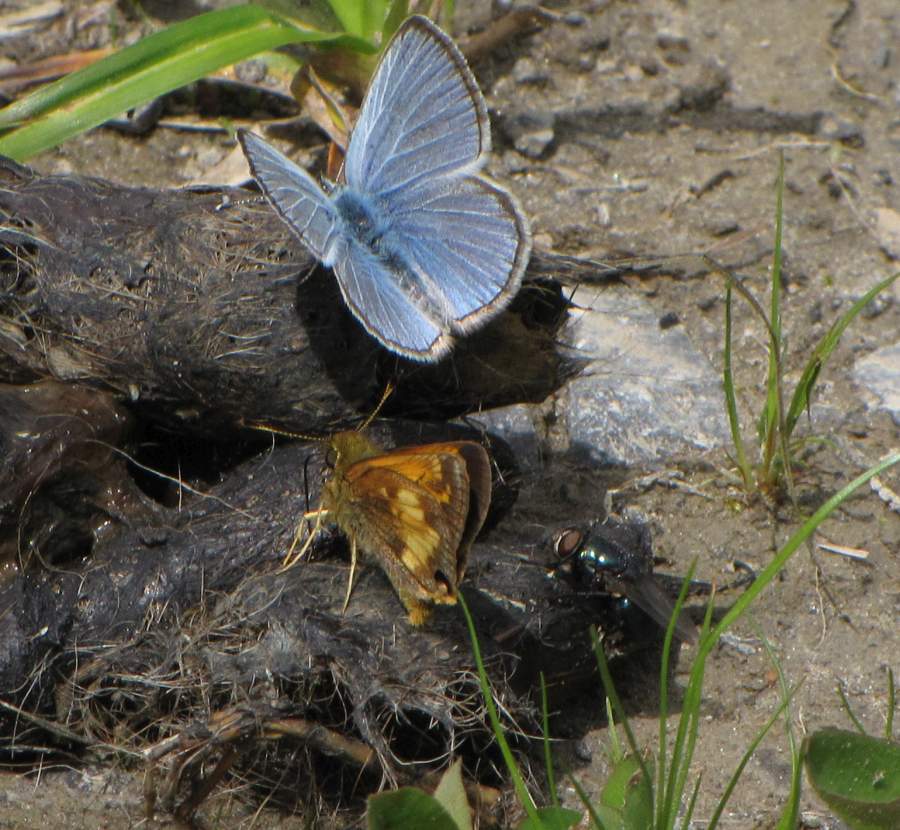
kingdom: Animalia
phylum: Arthropoda
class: Insecta
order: Lepidoptera
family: Hesperiidae
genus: Lon
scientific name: Lon hobomok
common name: Hobomok skipper
